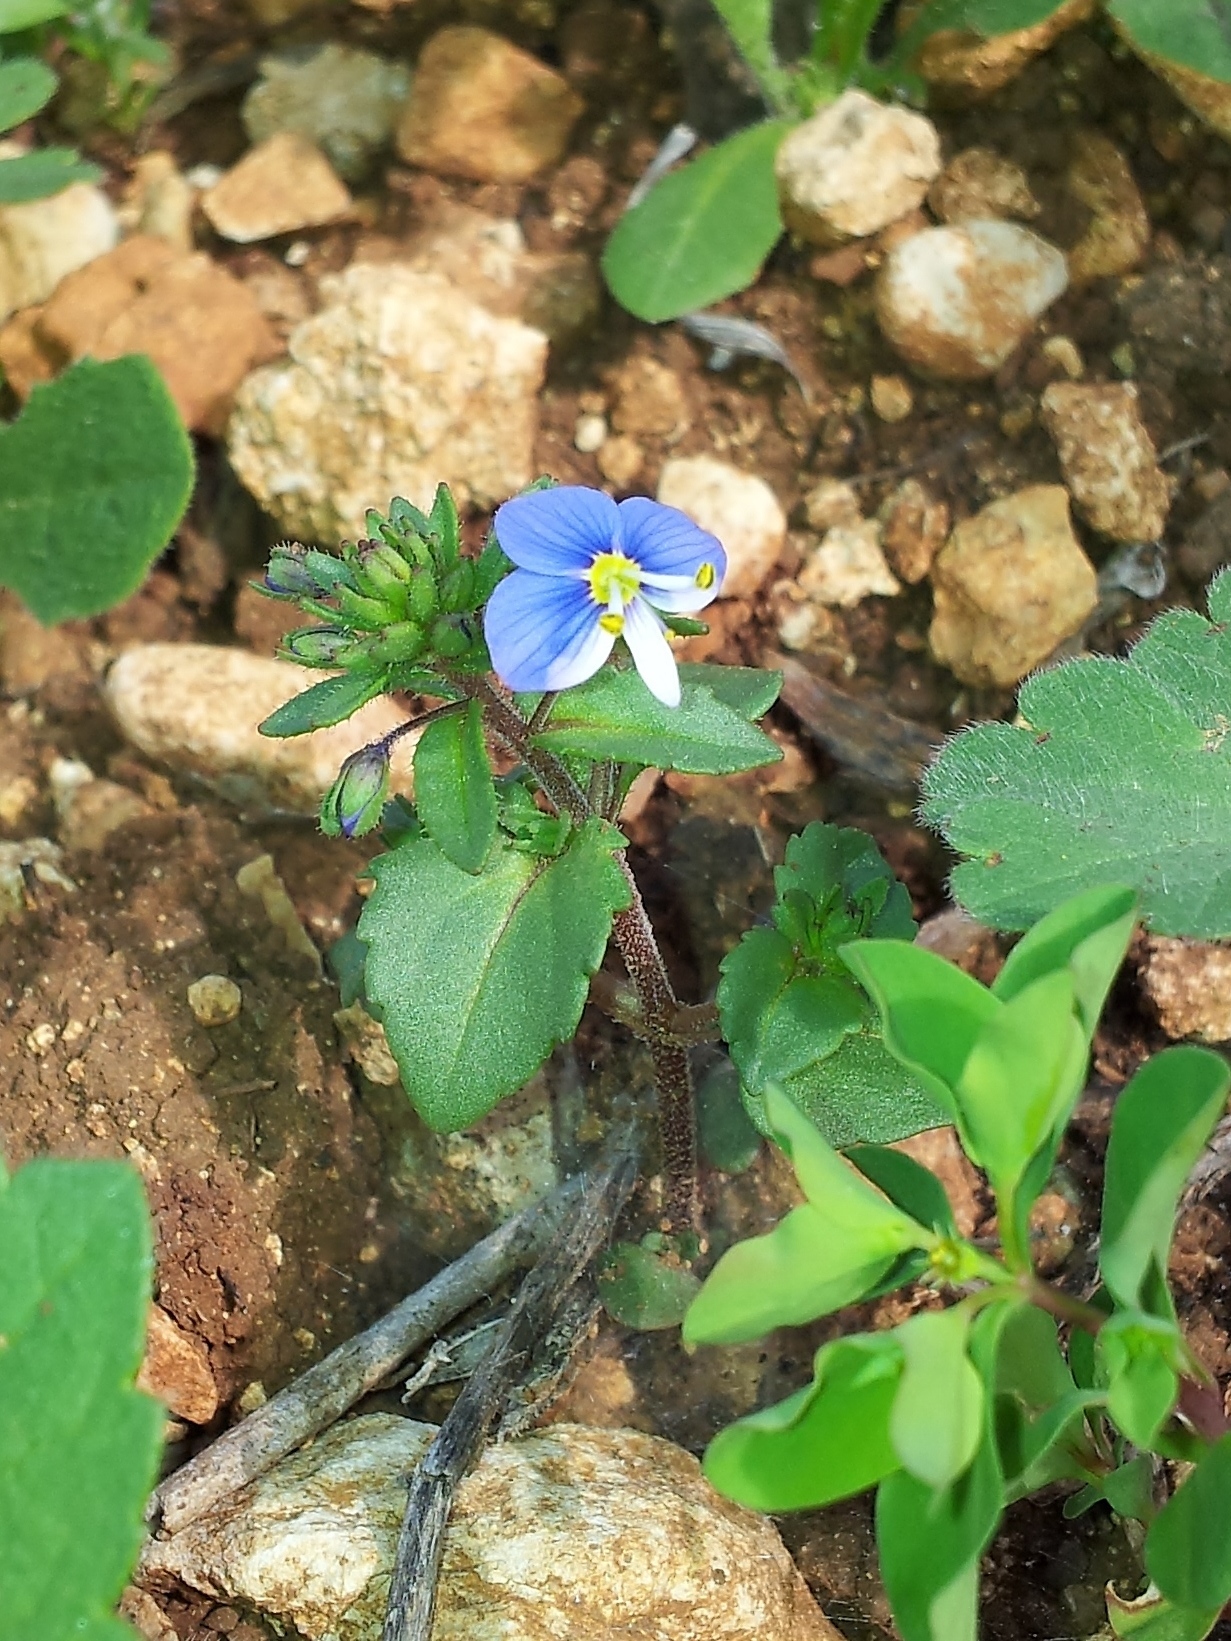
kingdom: Plantae
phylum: Tracheophyta
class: Magnoliopsida
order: Lamiales
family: Plantaginaceae
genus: Veronica
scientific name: Veronica syriaca
